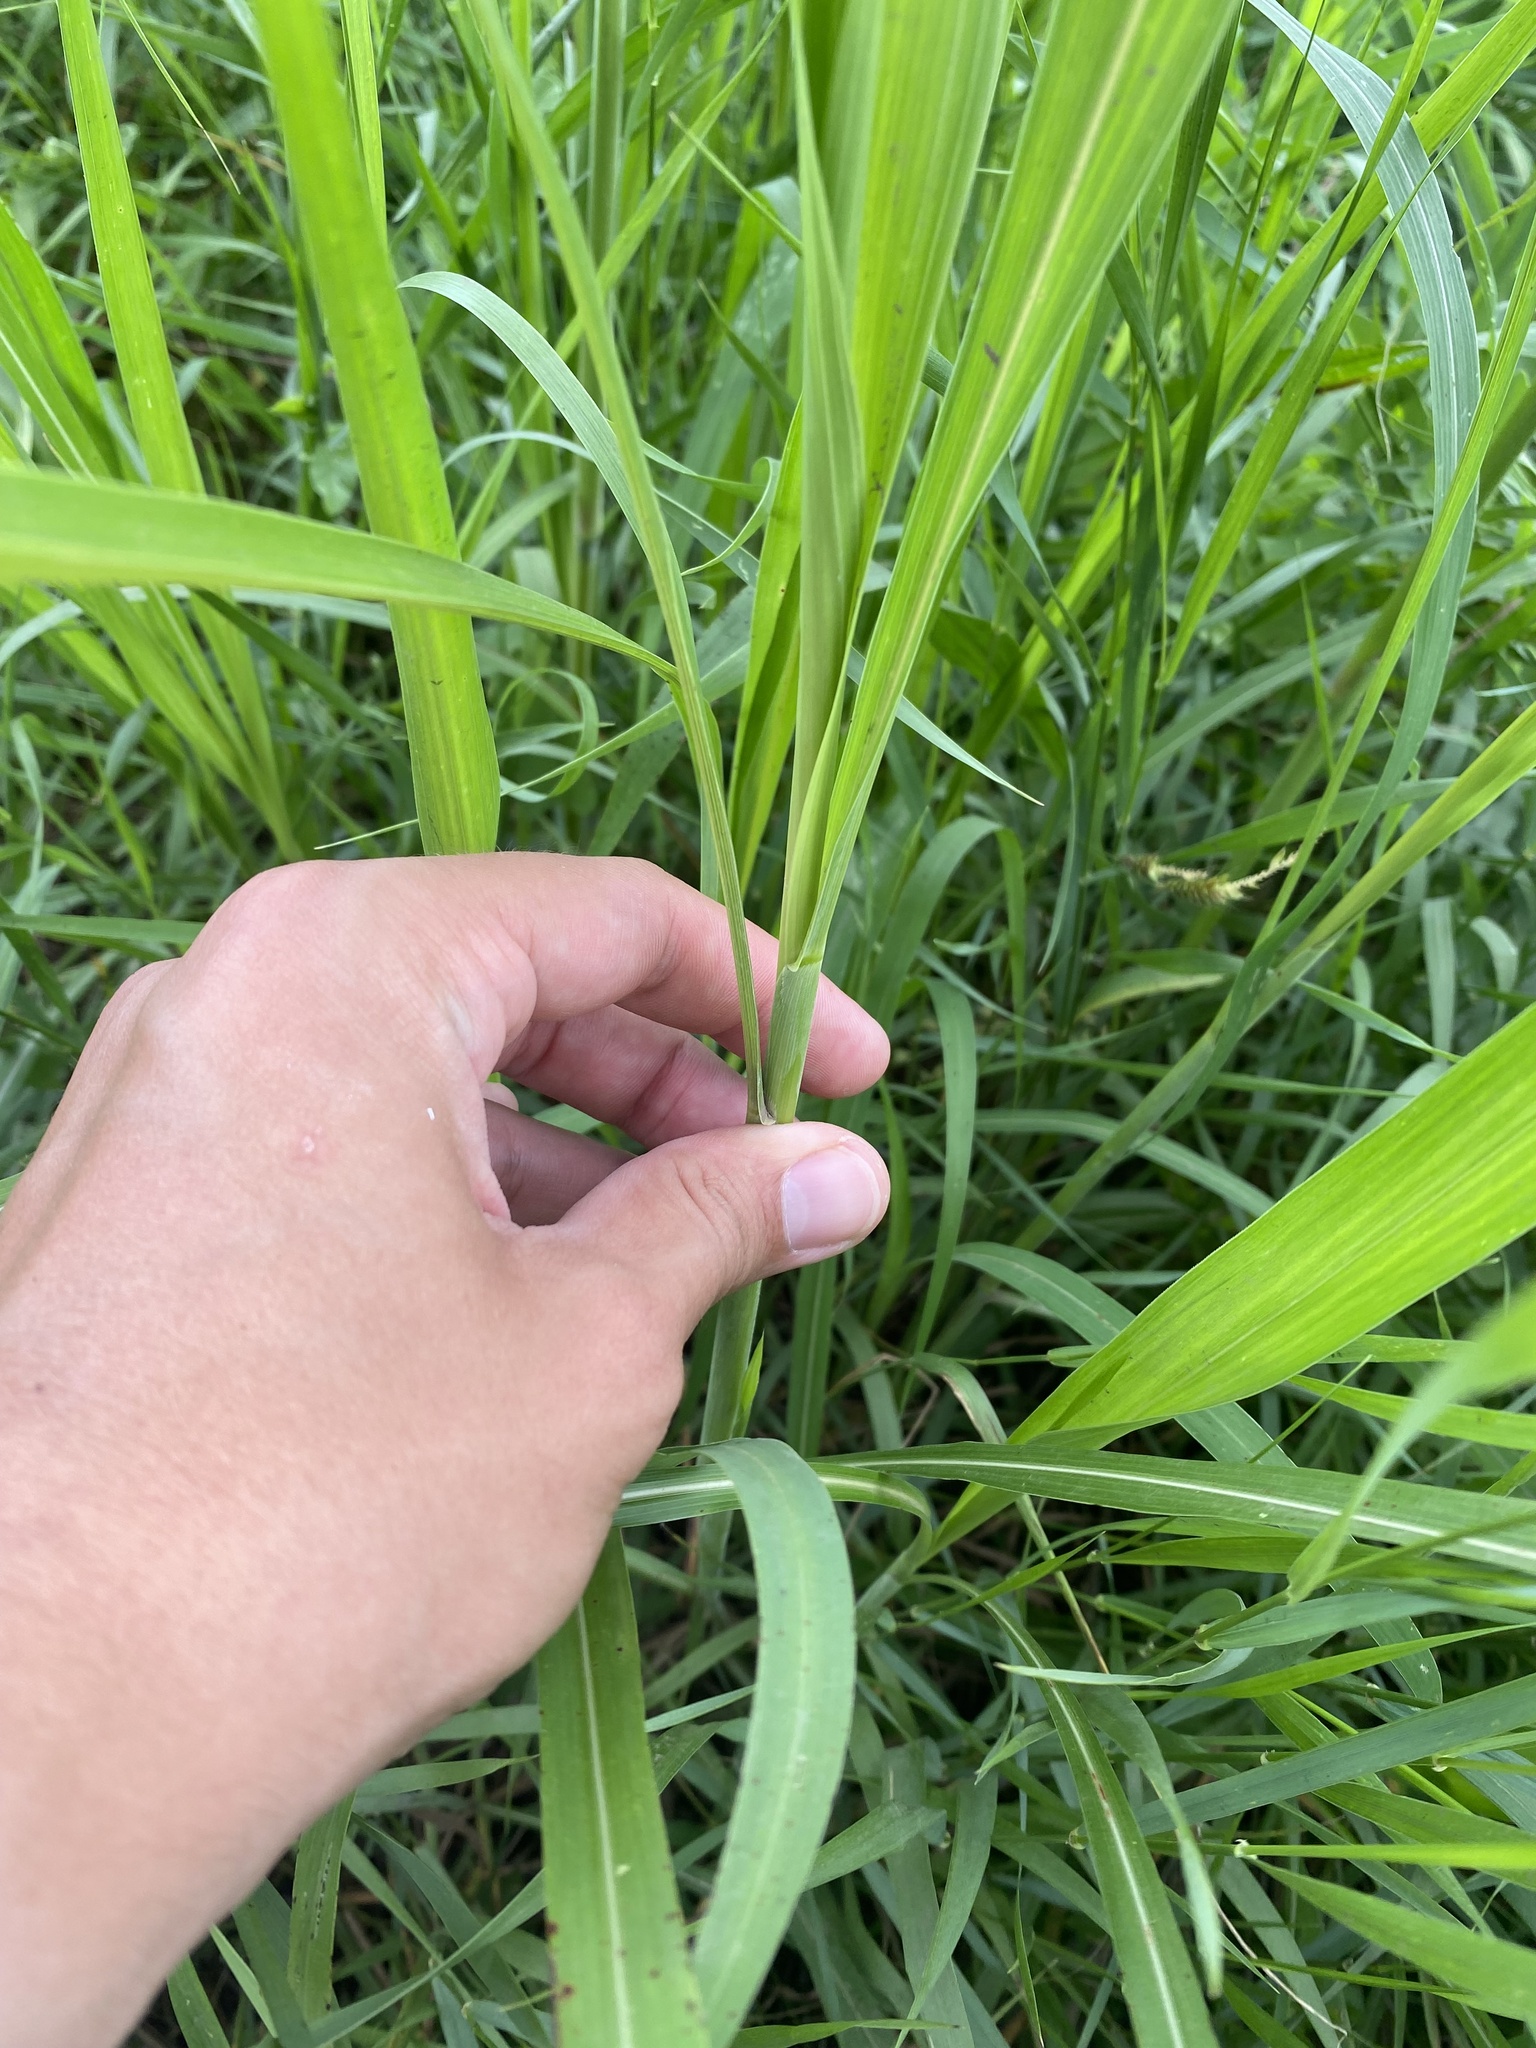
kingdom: Plantae
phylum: Tracheophyta
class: Liliopsida
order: Poales
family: Poaceae
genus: Sorghum
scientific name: Sorghum halepense
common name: Johnson-grass
